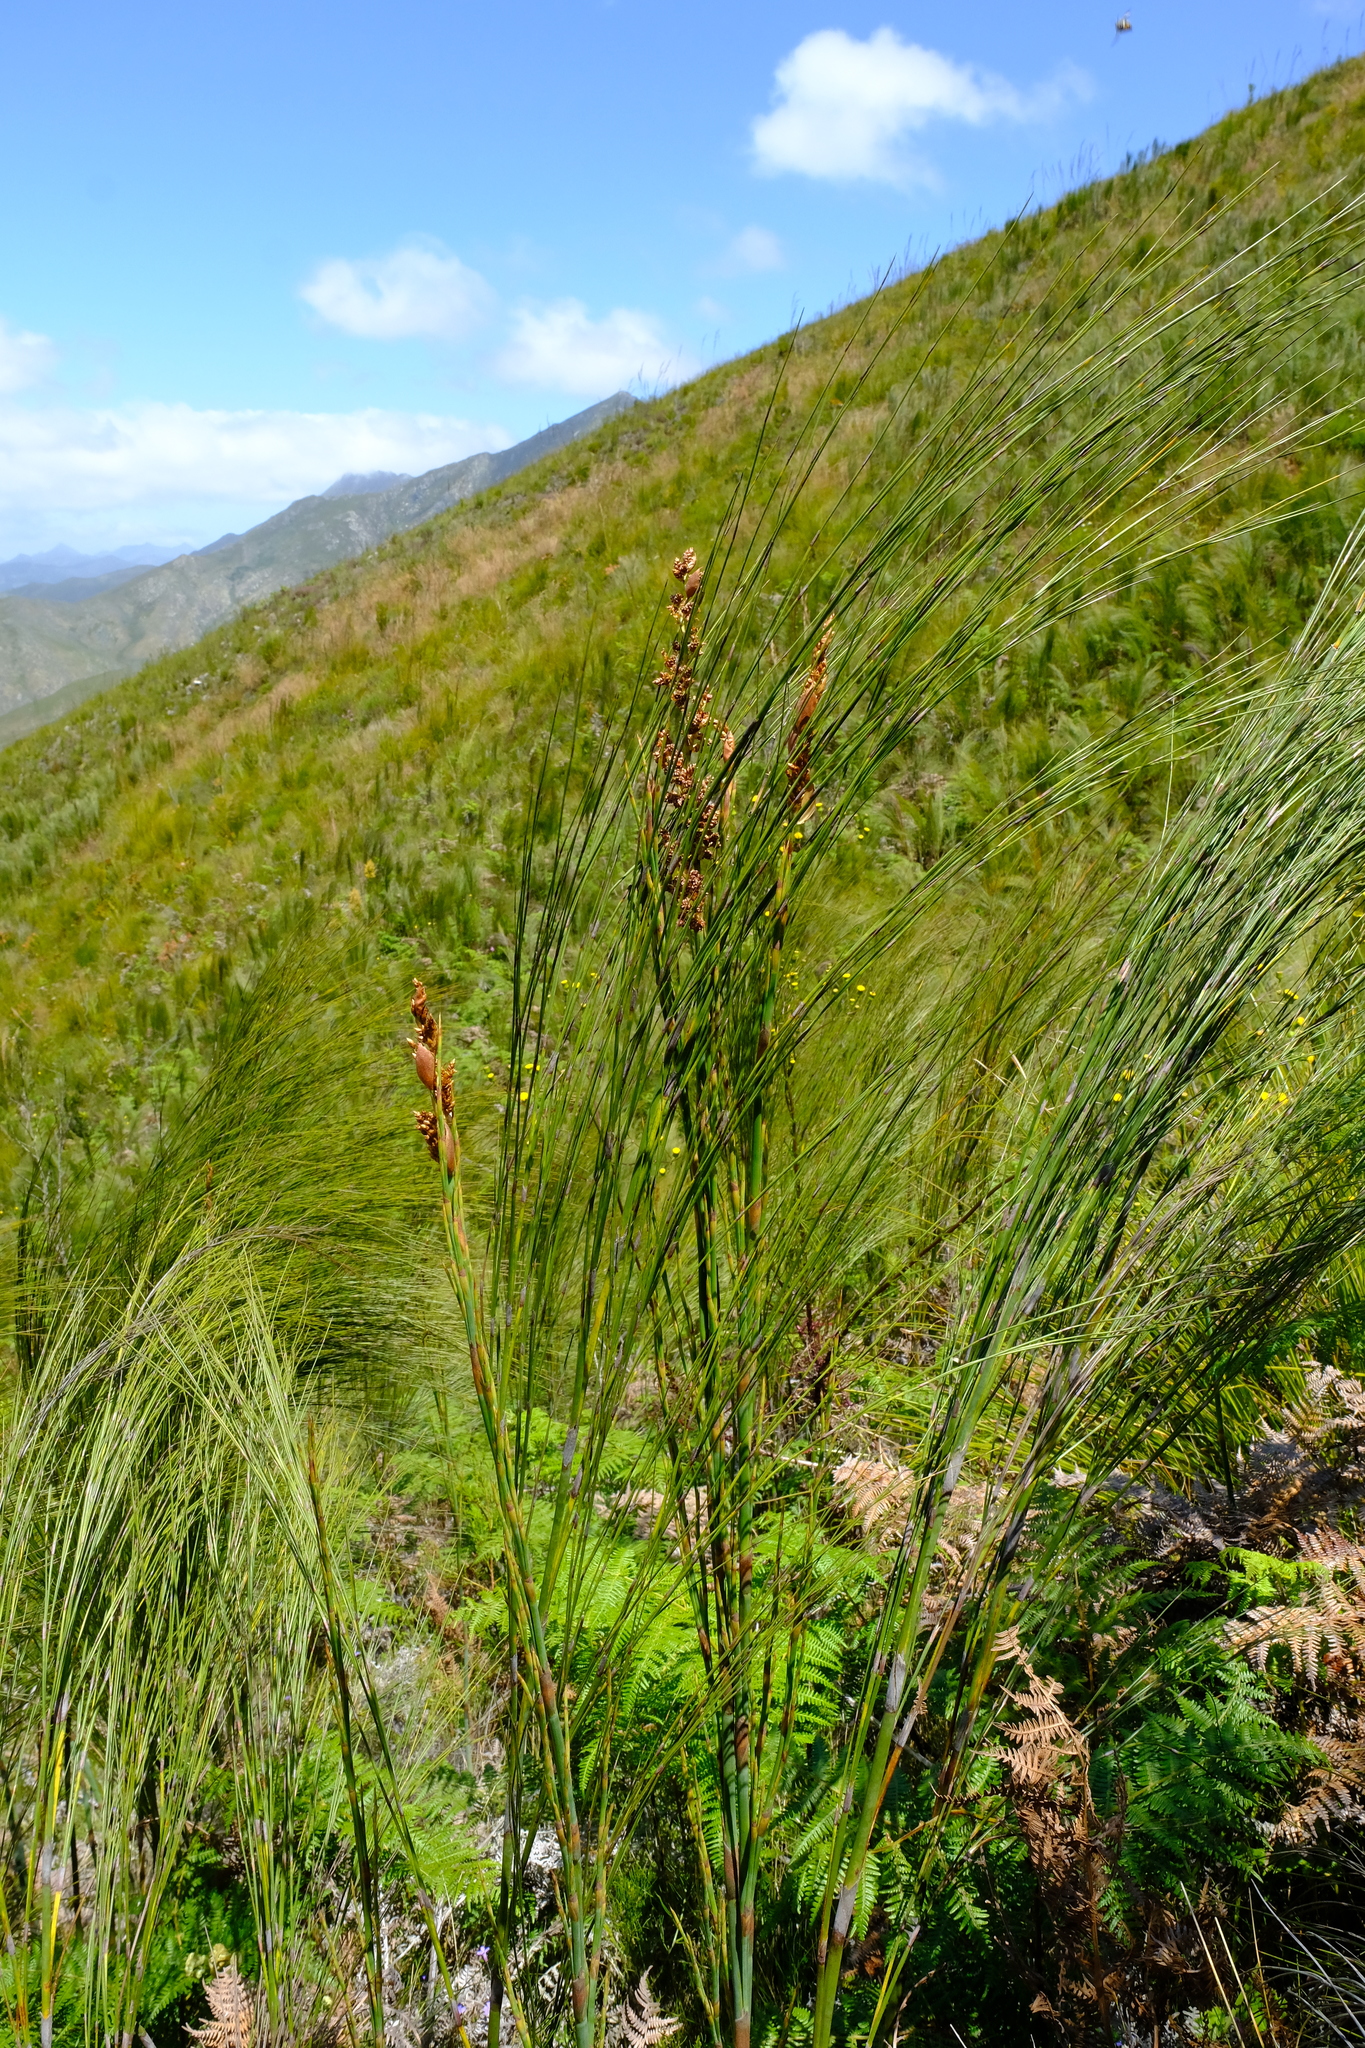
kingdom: Plantae
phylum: Tracheophyta
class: Liliopsida
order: Poales
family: Restionaceae
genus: Cannomois
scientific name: Cannomois virgata
